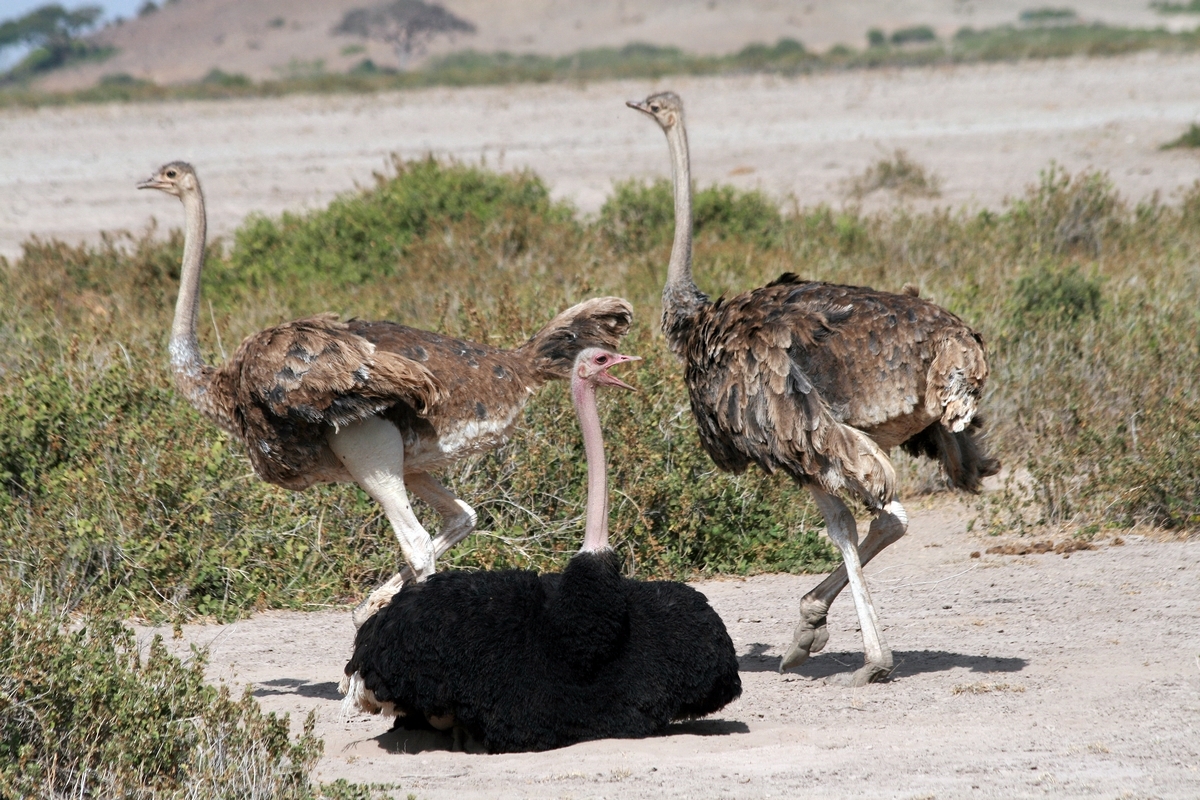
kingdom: Animalia
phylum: Chordata
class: Aves
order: Struthioniformes
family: Struthionidae
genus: Struthio
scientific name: Struthio camelus
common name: Common ostrich
